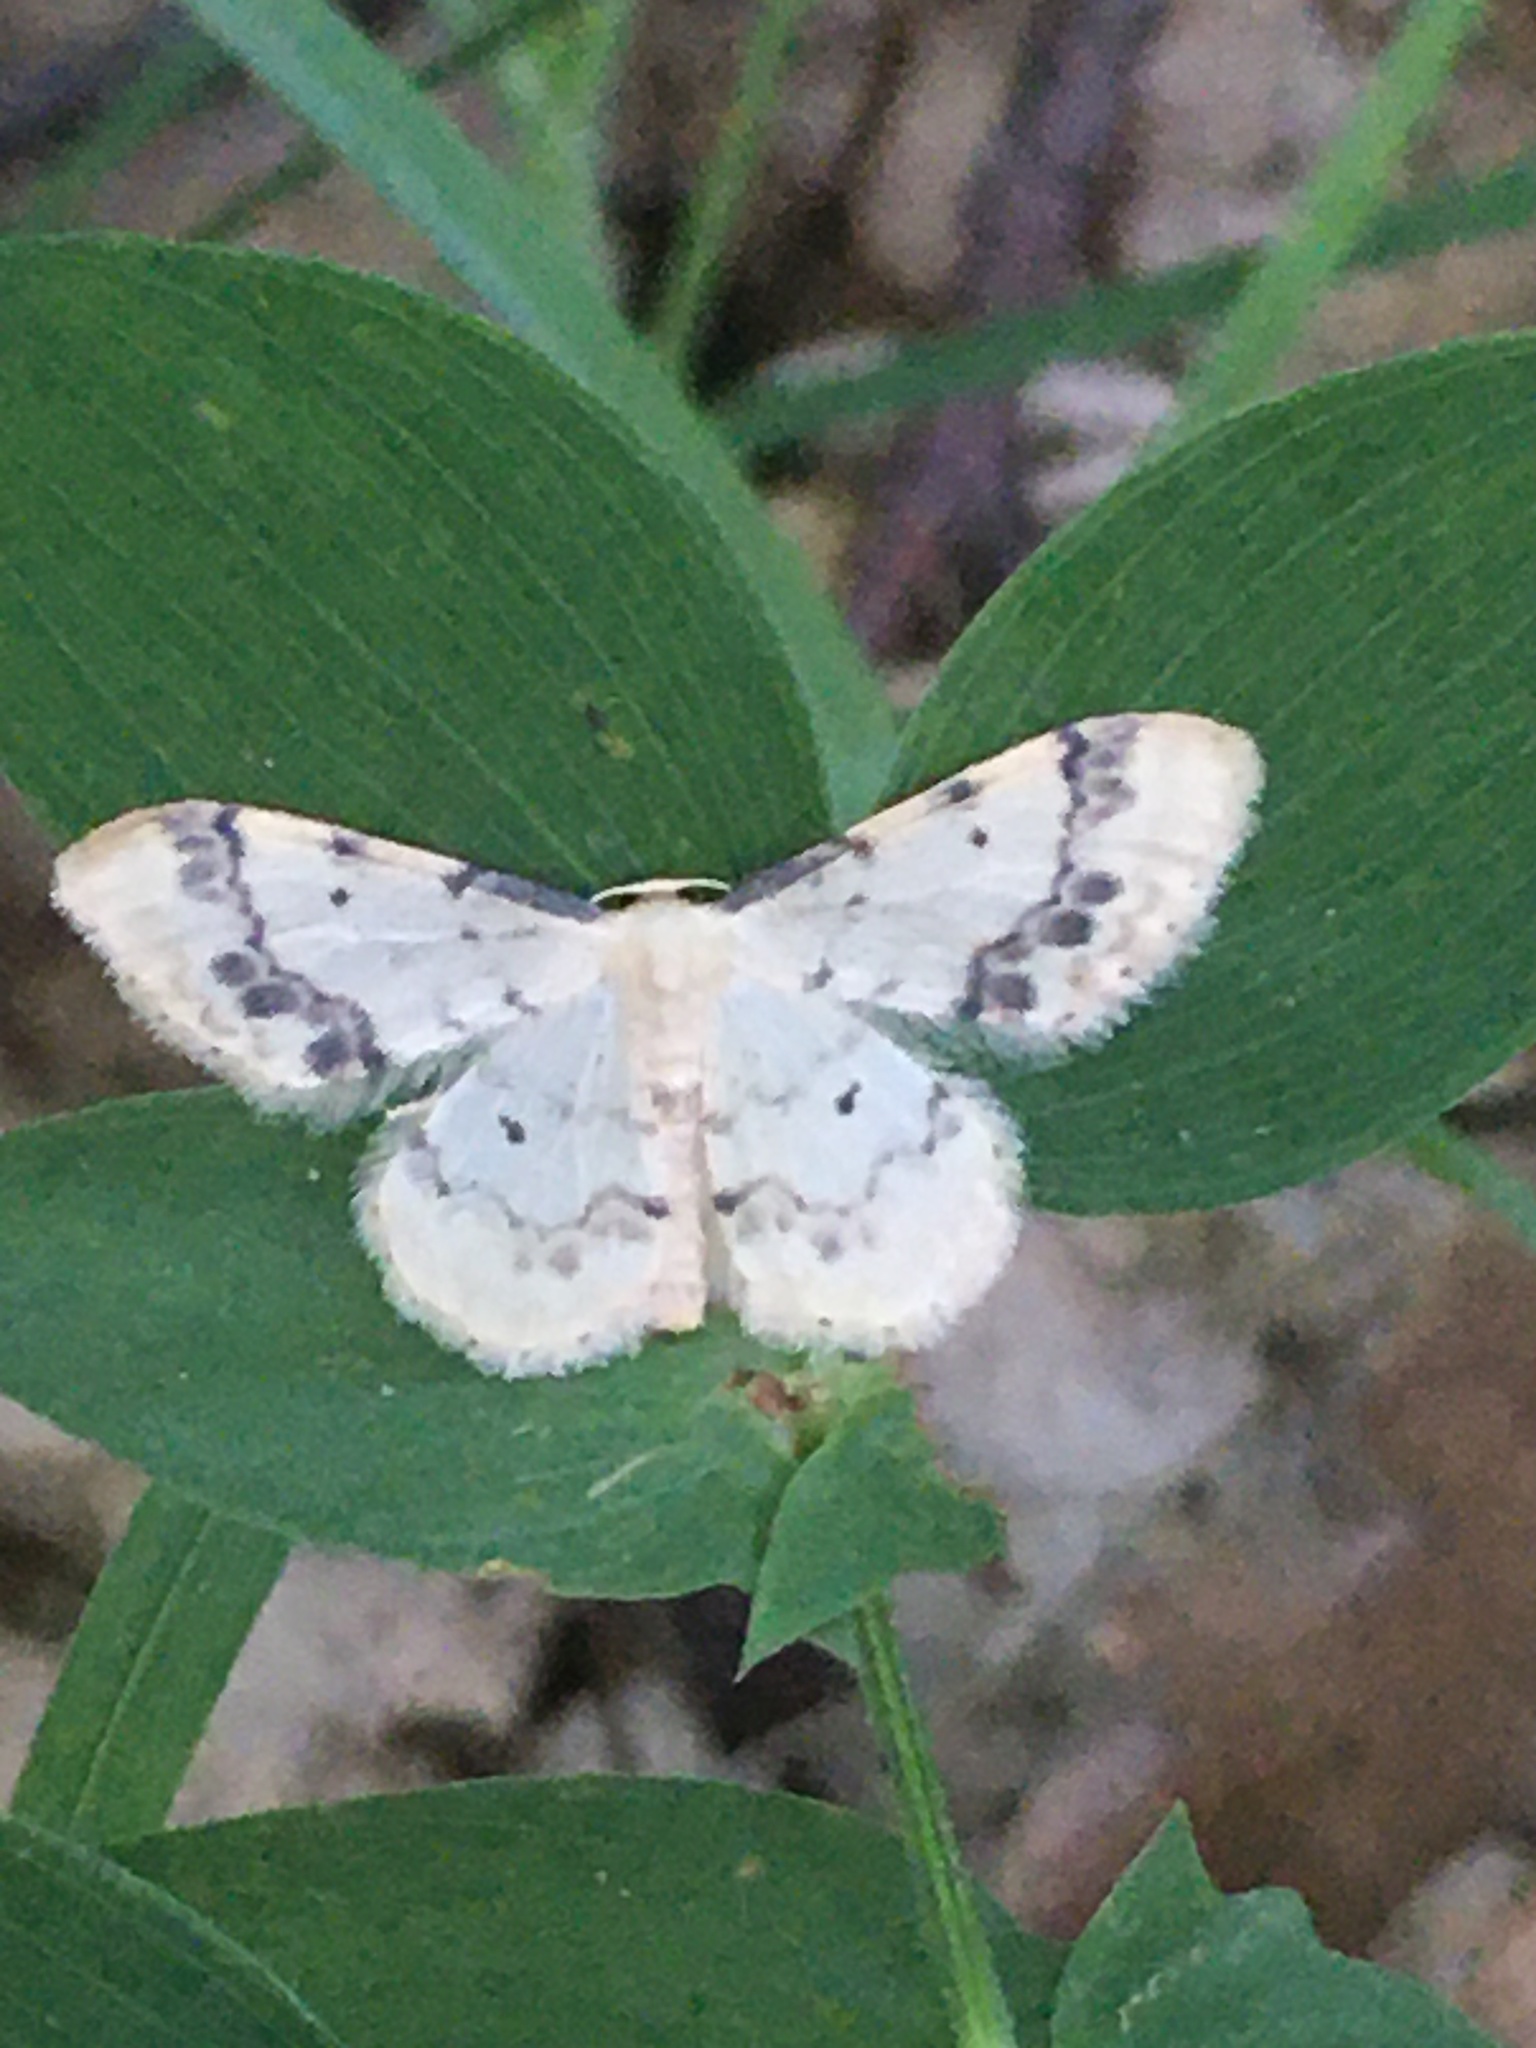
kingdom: Animalia
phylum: Arthropoda
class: Insecta
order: Lepidoptera
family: Geometridae
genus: Idaea
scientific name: Idaea trigeminata
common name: Treble brown spot
